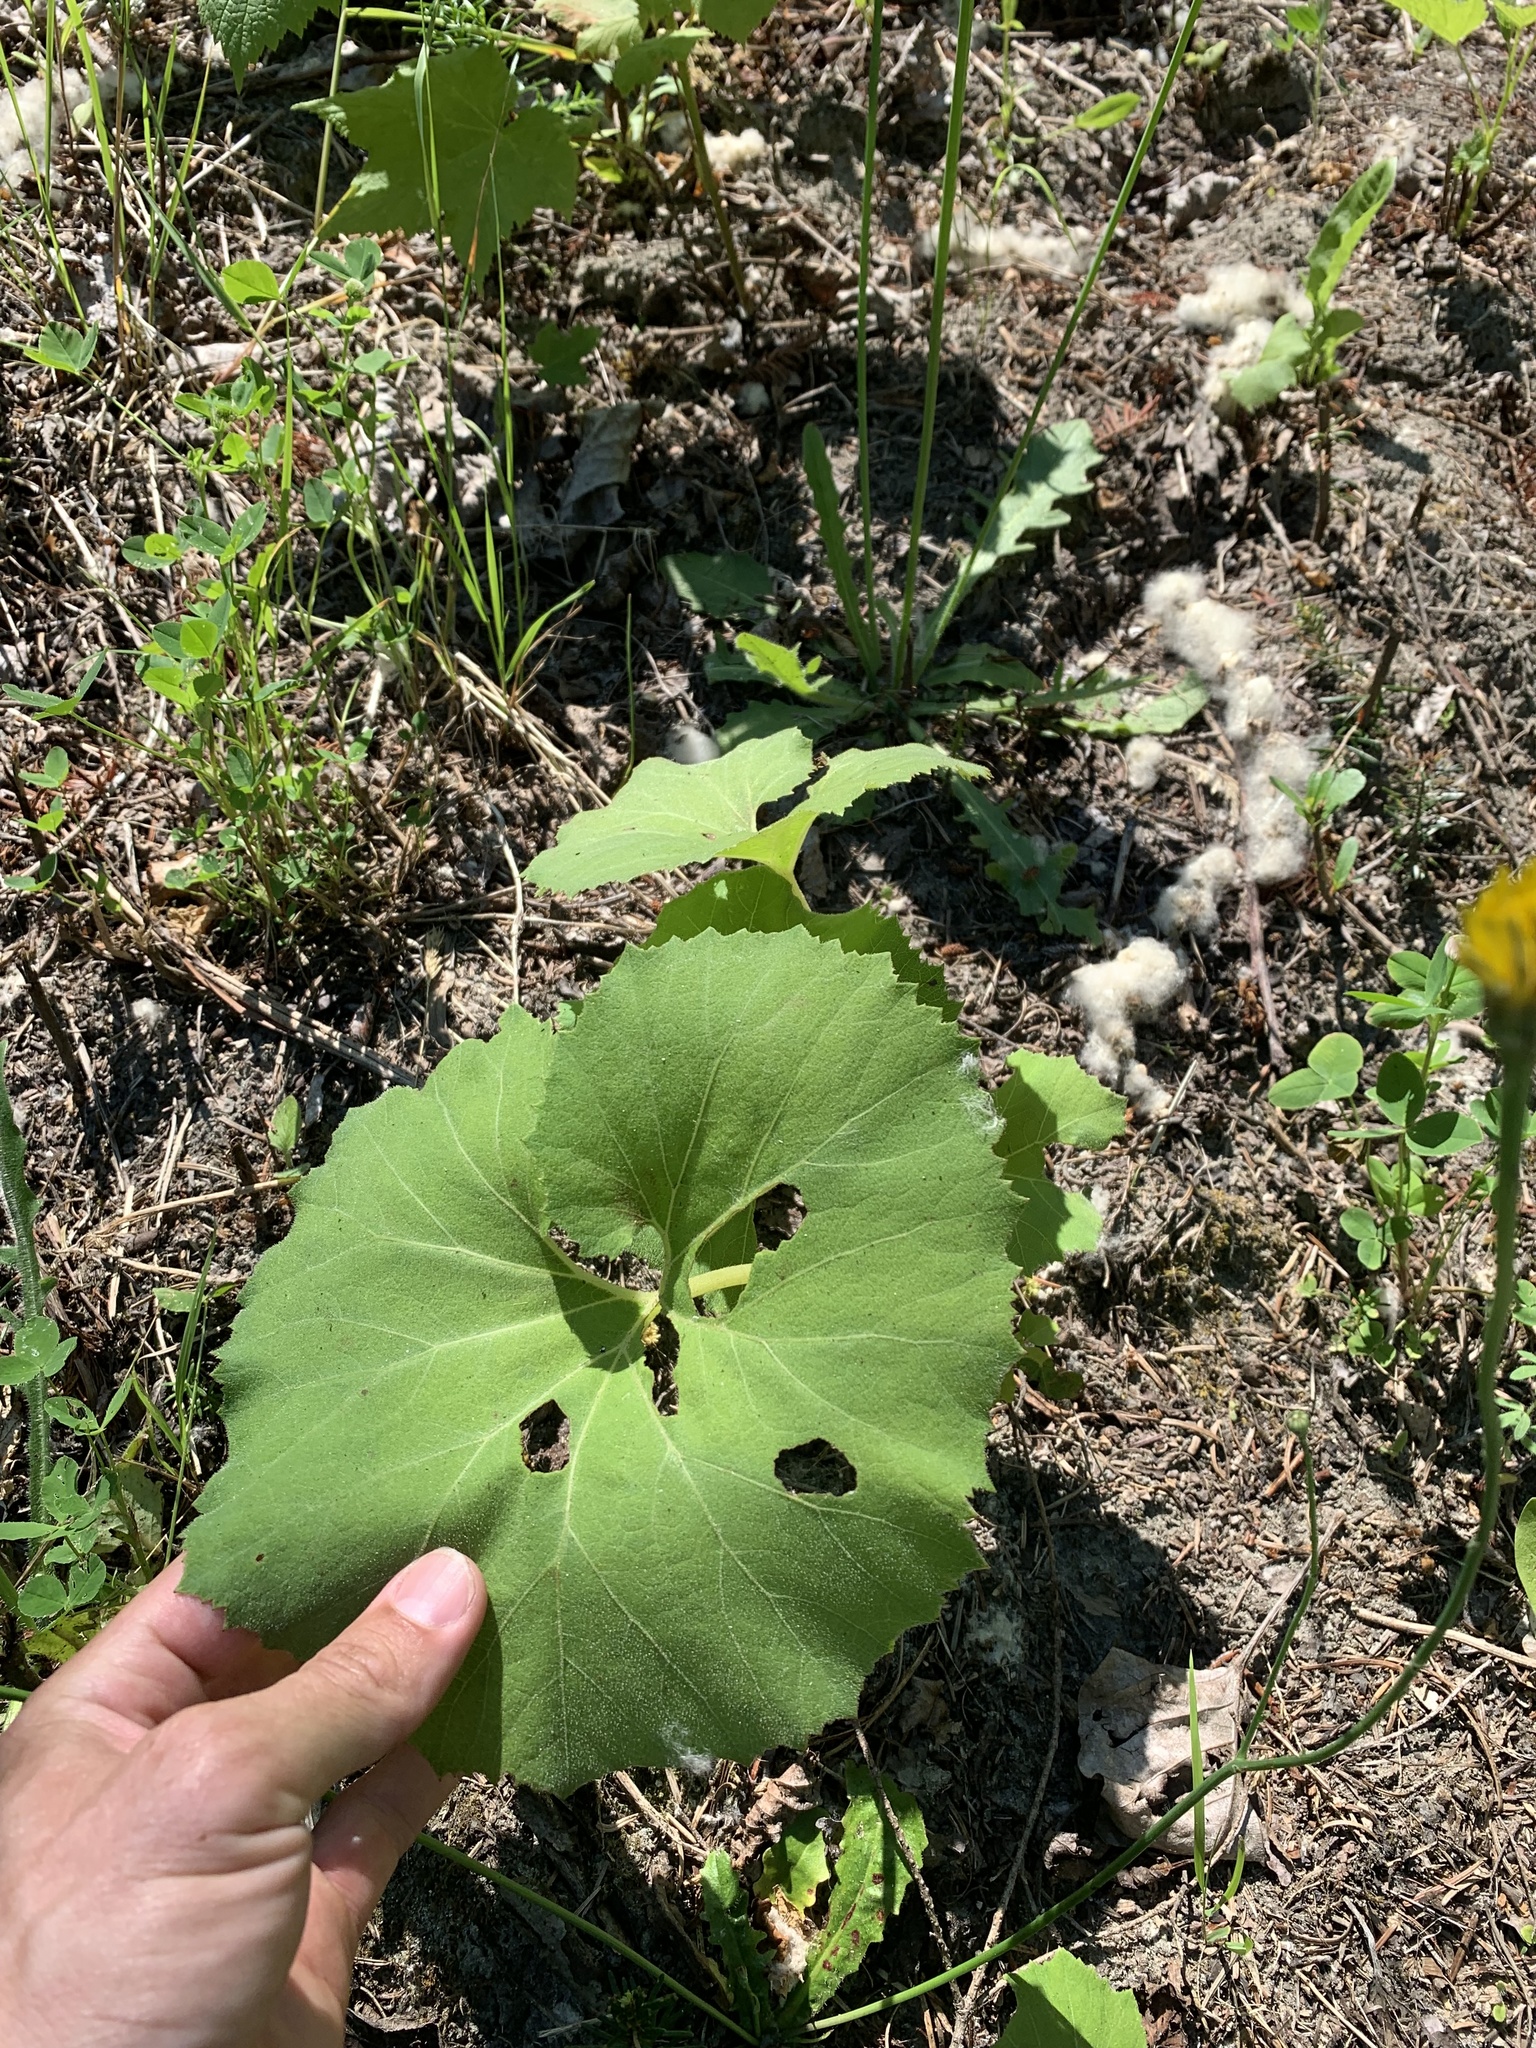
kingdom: Plantae
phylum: Tracheophyta
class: Magnoliopsida
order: Asterales
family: Asteraceae
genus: Petasites
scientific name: Petasites japonicus
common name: Giant butterbur
